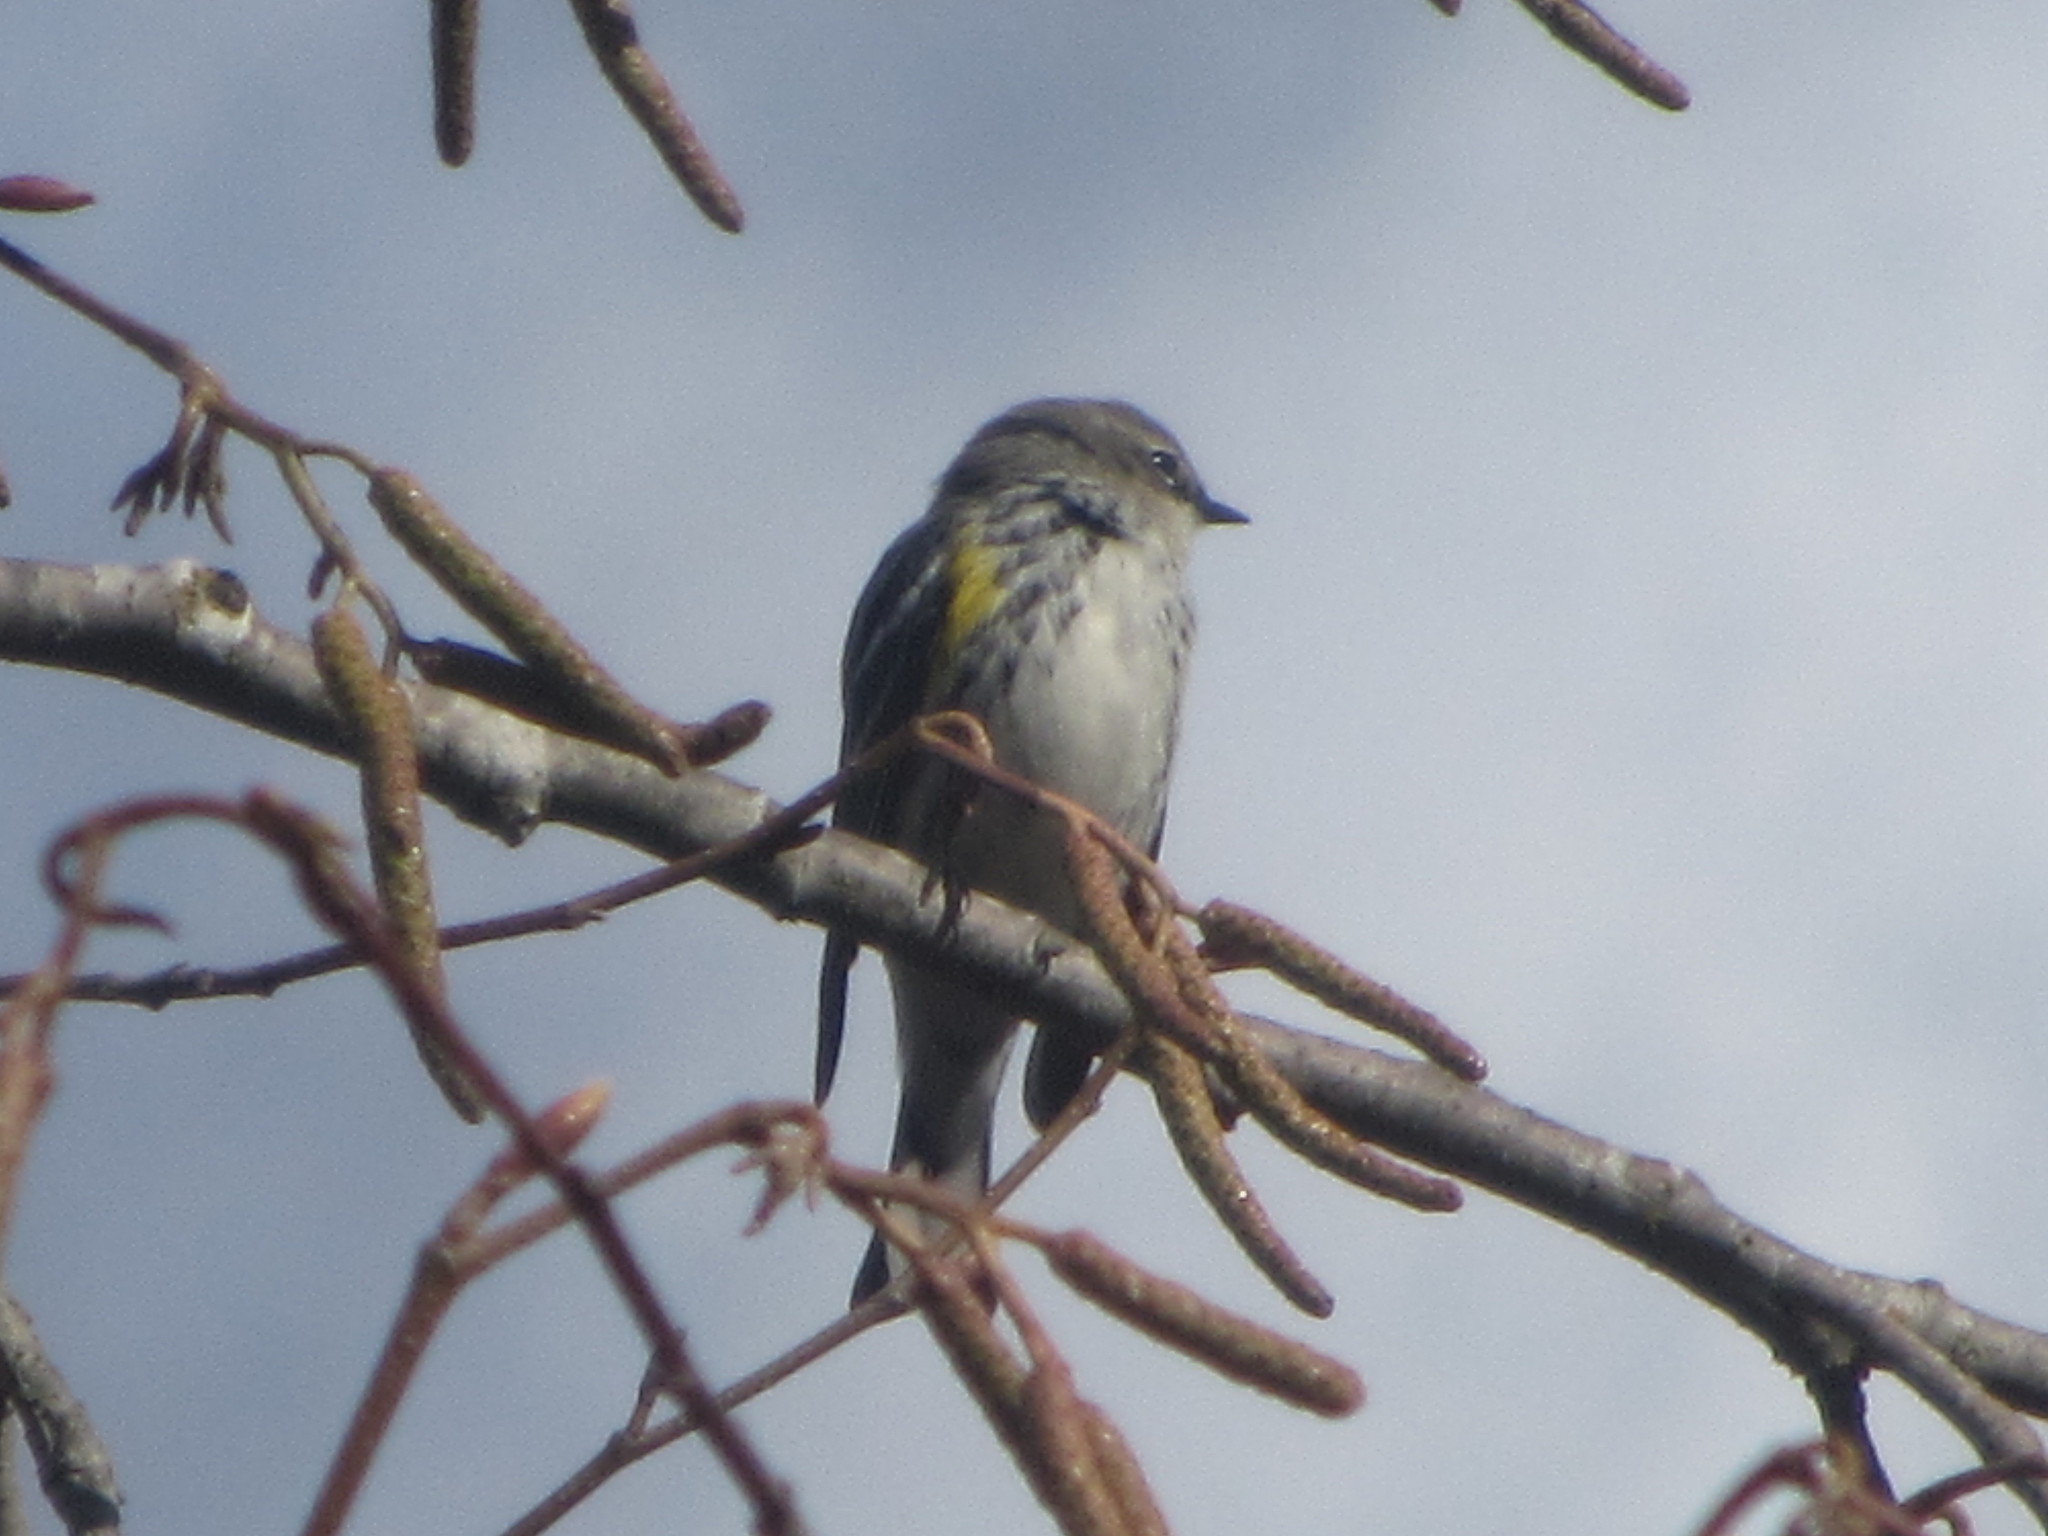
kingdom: Animalia
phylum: Chordata
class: Aves
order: Passeriformes
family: Parulidae
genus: Setophaga
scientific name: Setophaga coronata
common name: Myrtle warbler
